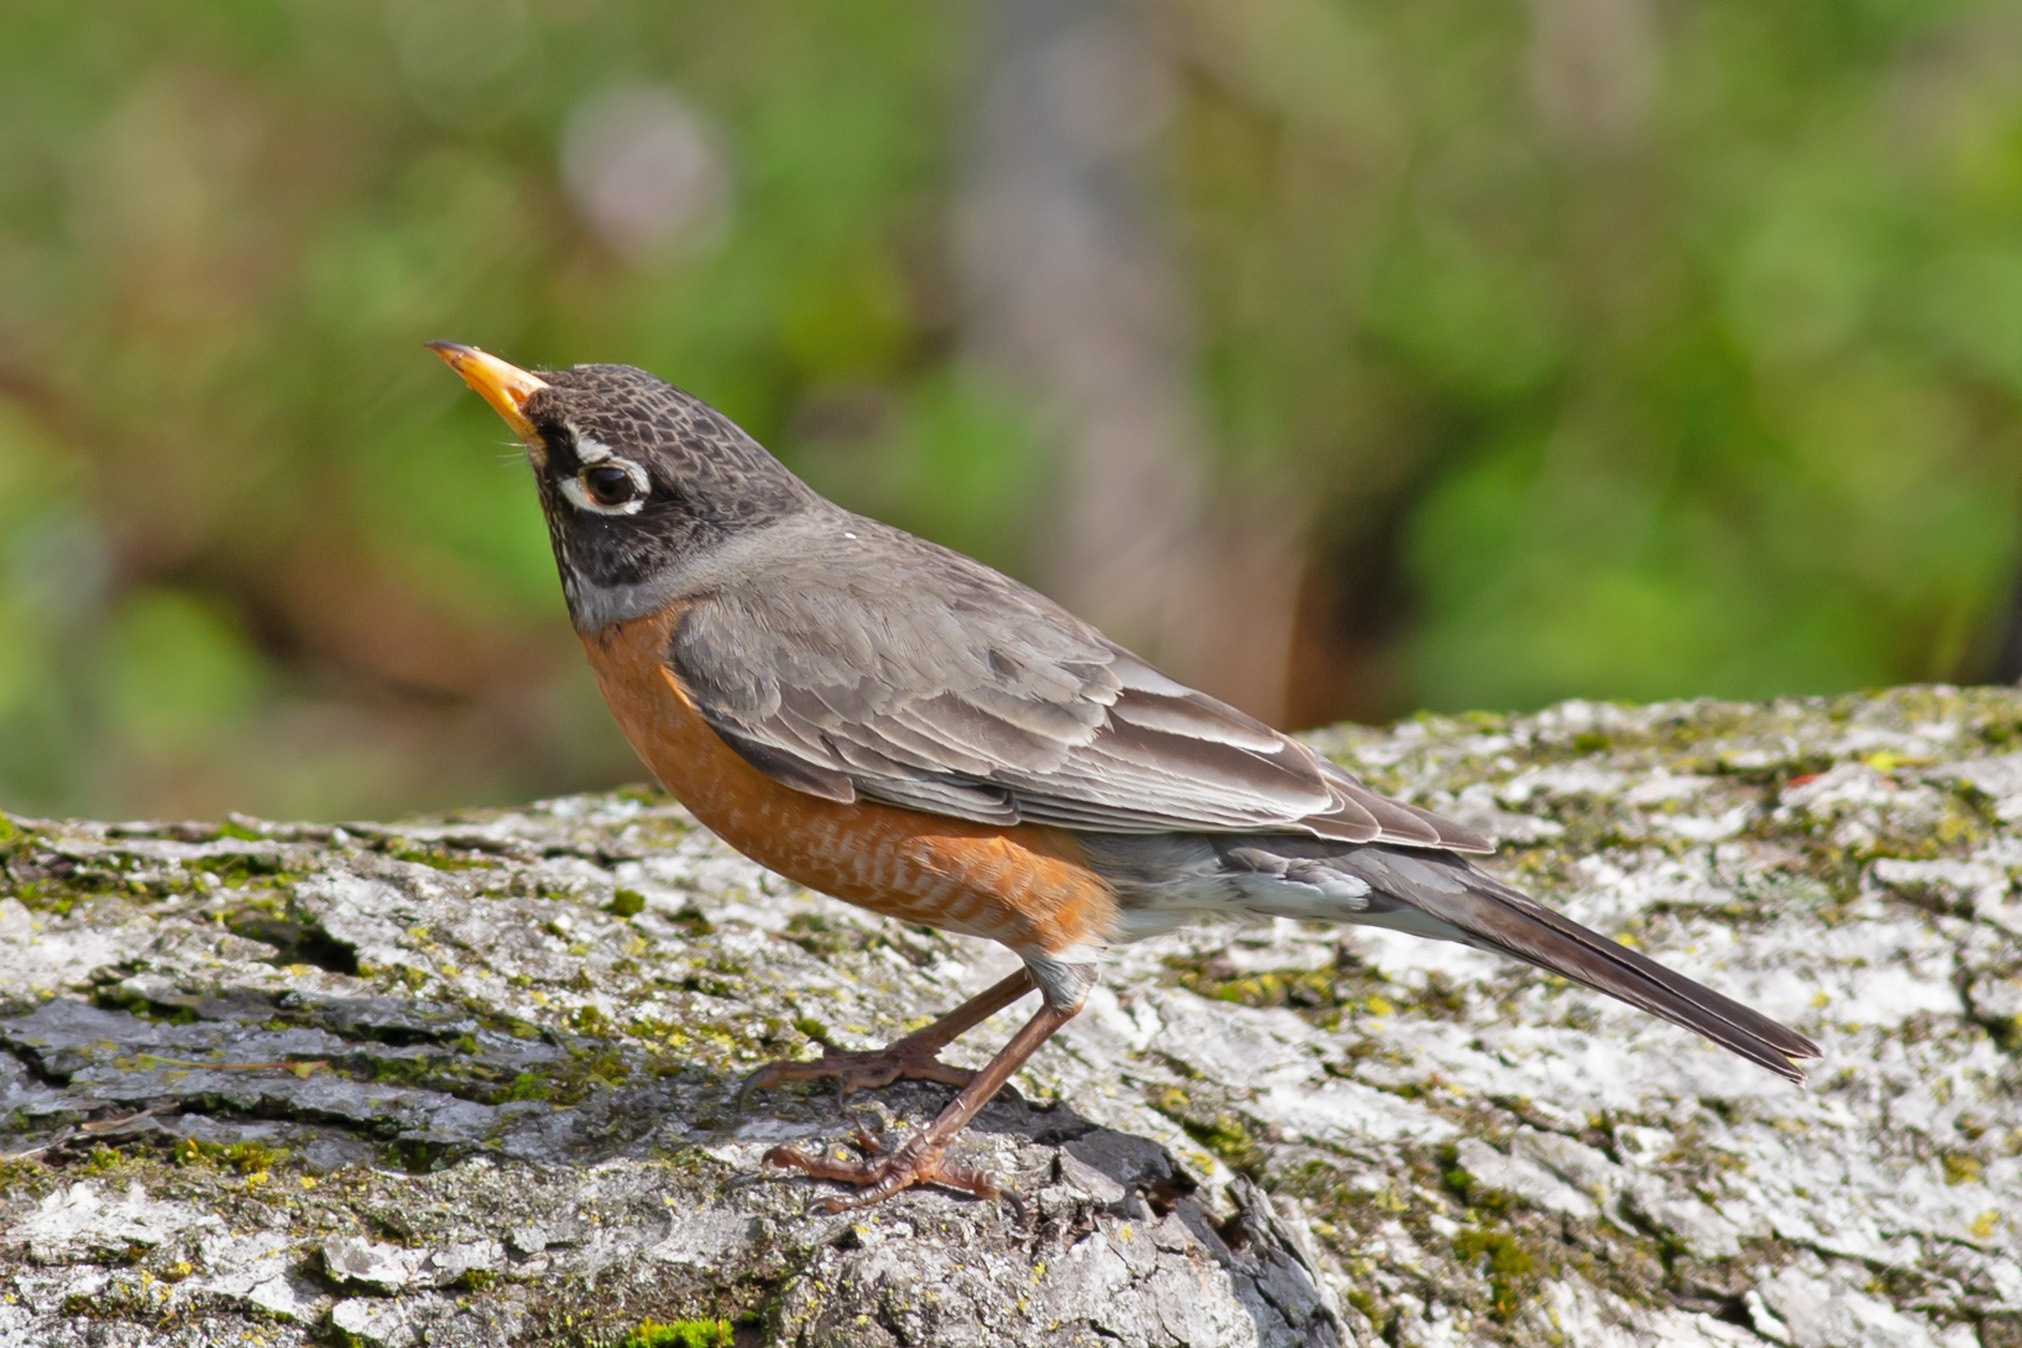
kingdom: Animalia
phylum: Chordata
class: Aves
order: Passeriformes
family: Turdidae
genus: Turdus
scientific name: Turdus migratorius
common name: American robin
